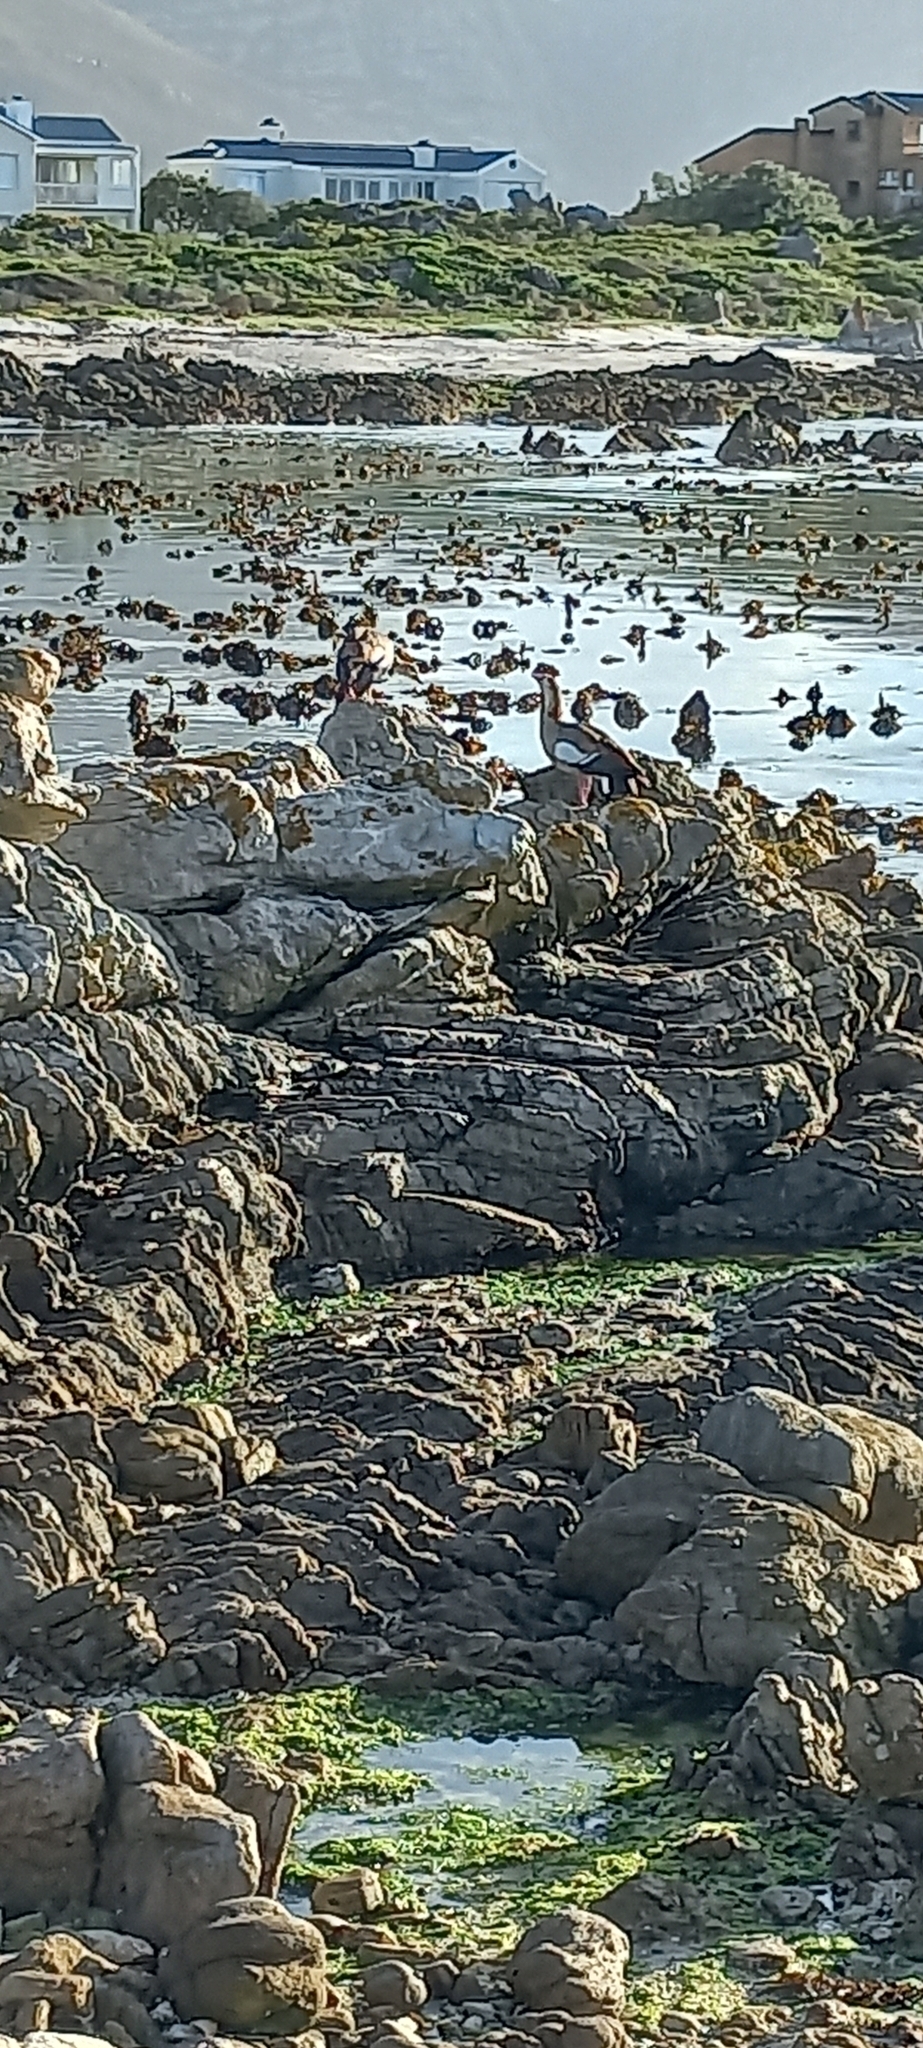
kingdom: Animalia
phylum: Chordata
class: Aves
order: Anseriformes
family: Anatidae
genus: Alopochen
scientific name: Alopochen aegyptiaca
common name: Egyptian goose
